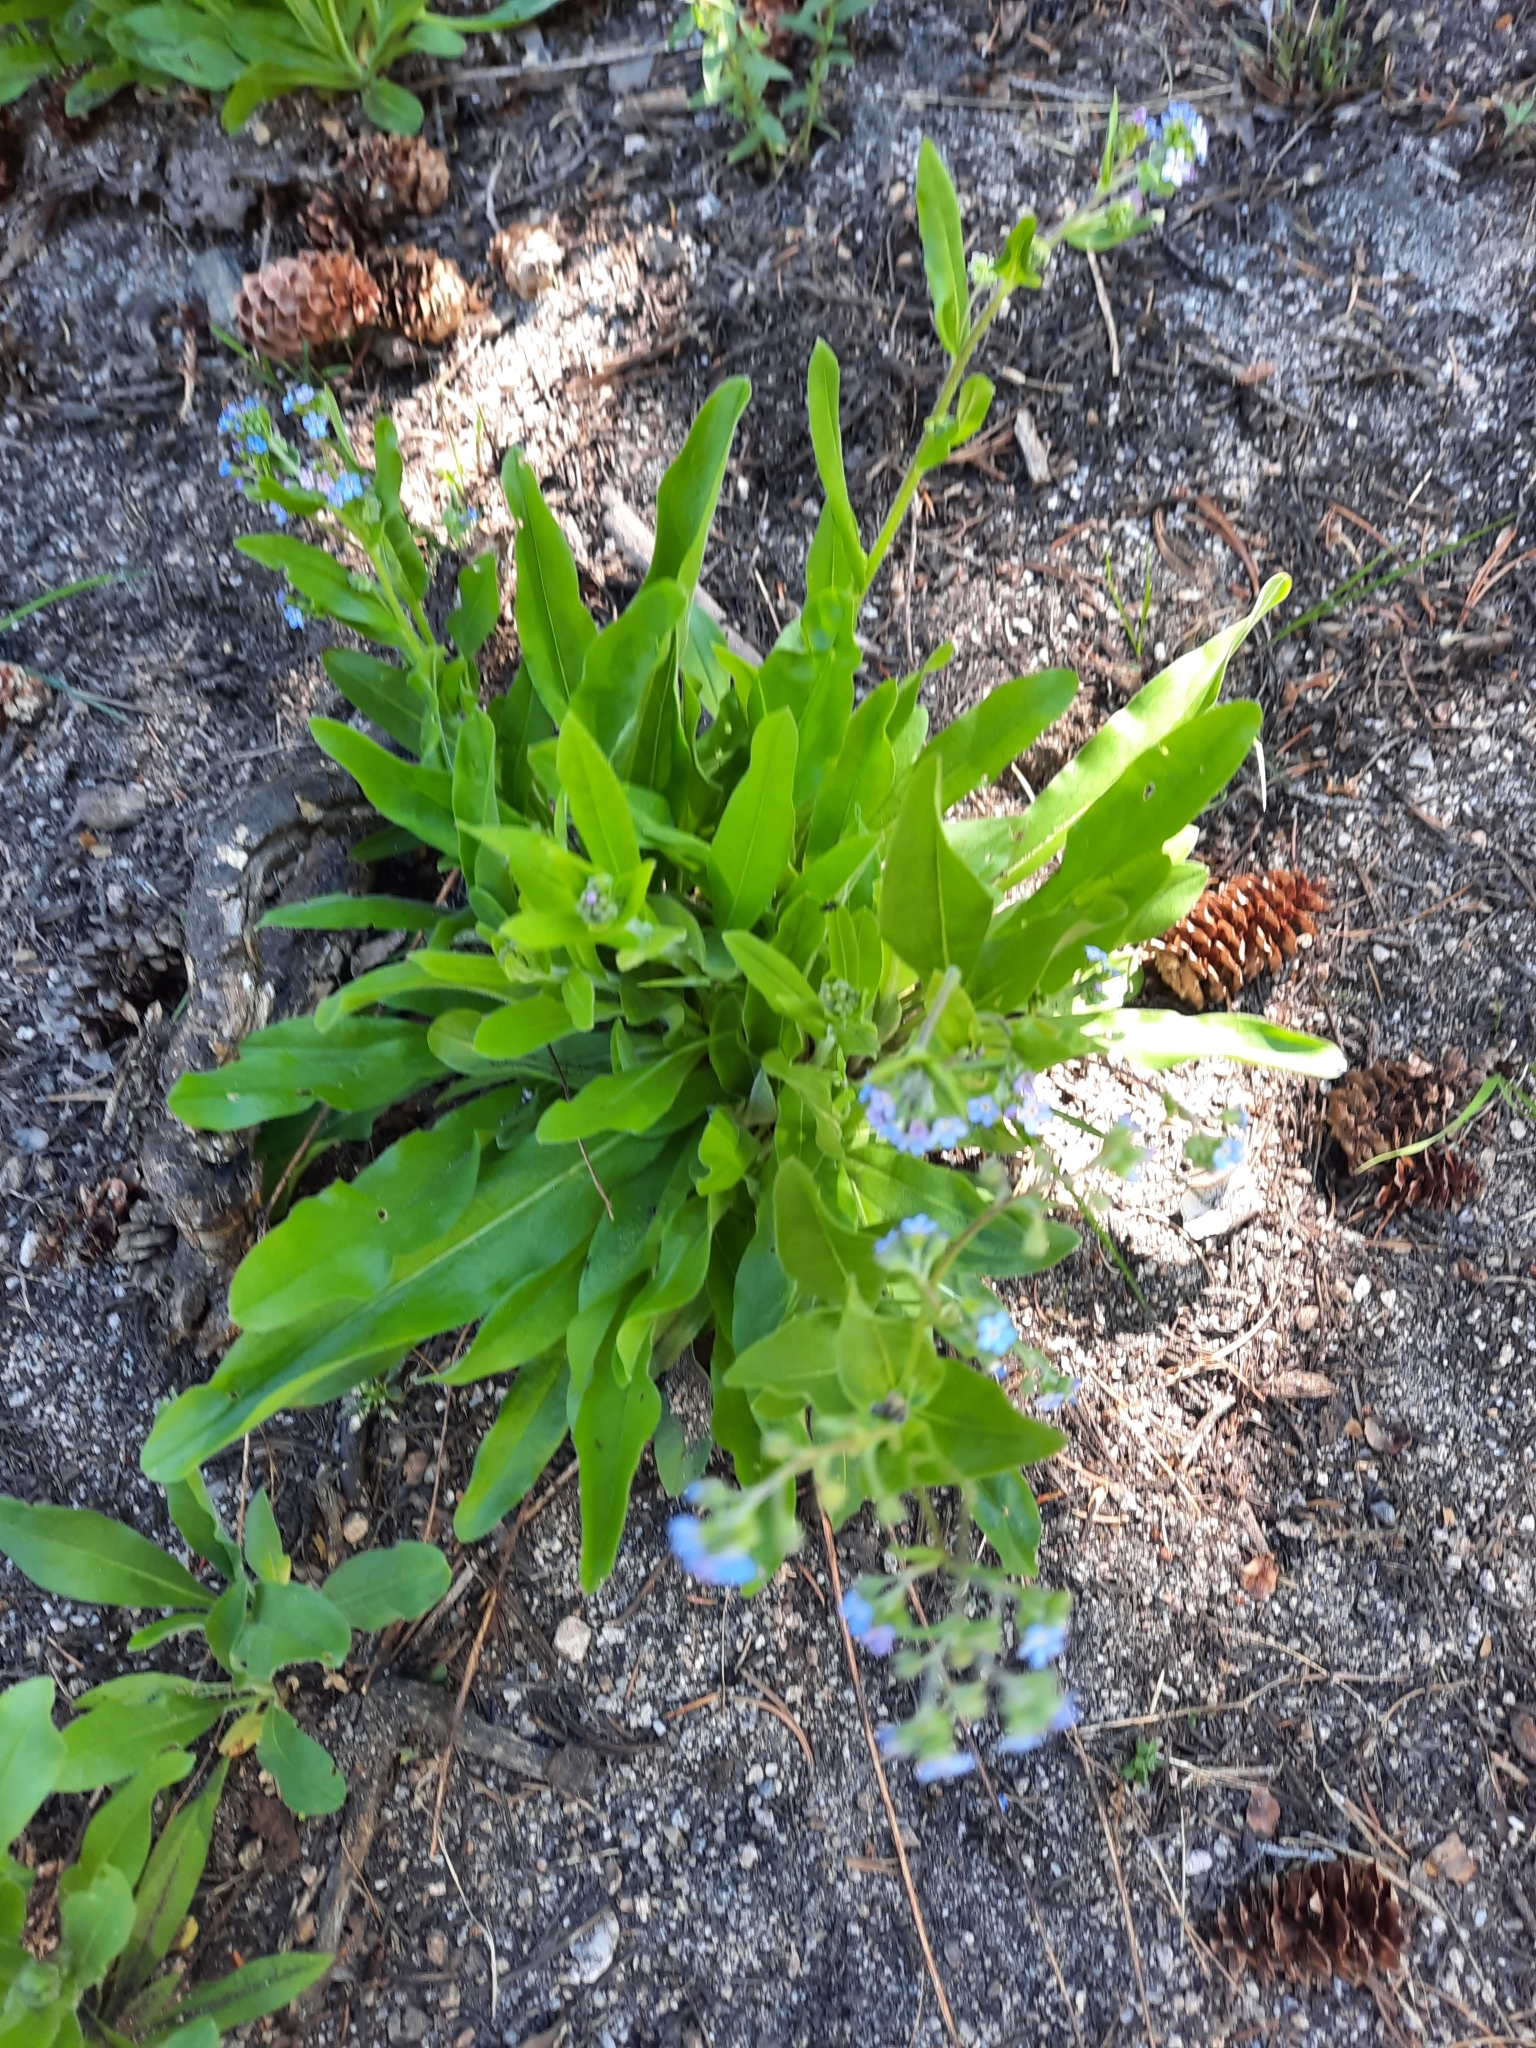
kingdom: Plantae
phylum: Tracheophyta
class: Magnoliopsida
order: Boraginales
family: Boraginaceae
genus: Myosotis
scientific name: Myosotis scorpioides
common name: Water forget-me-not
